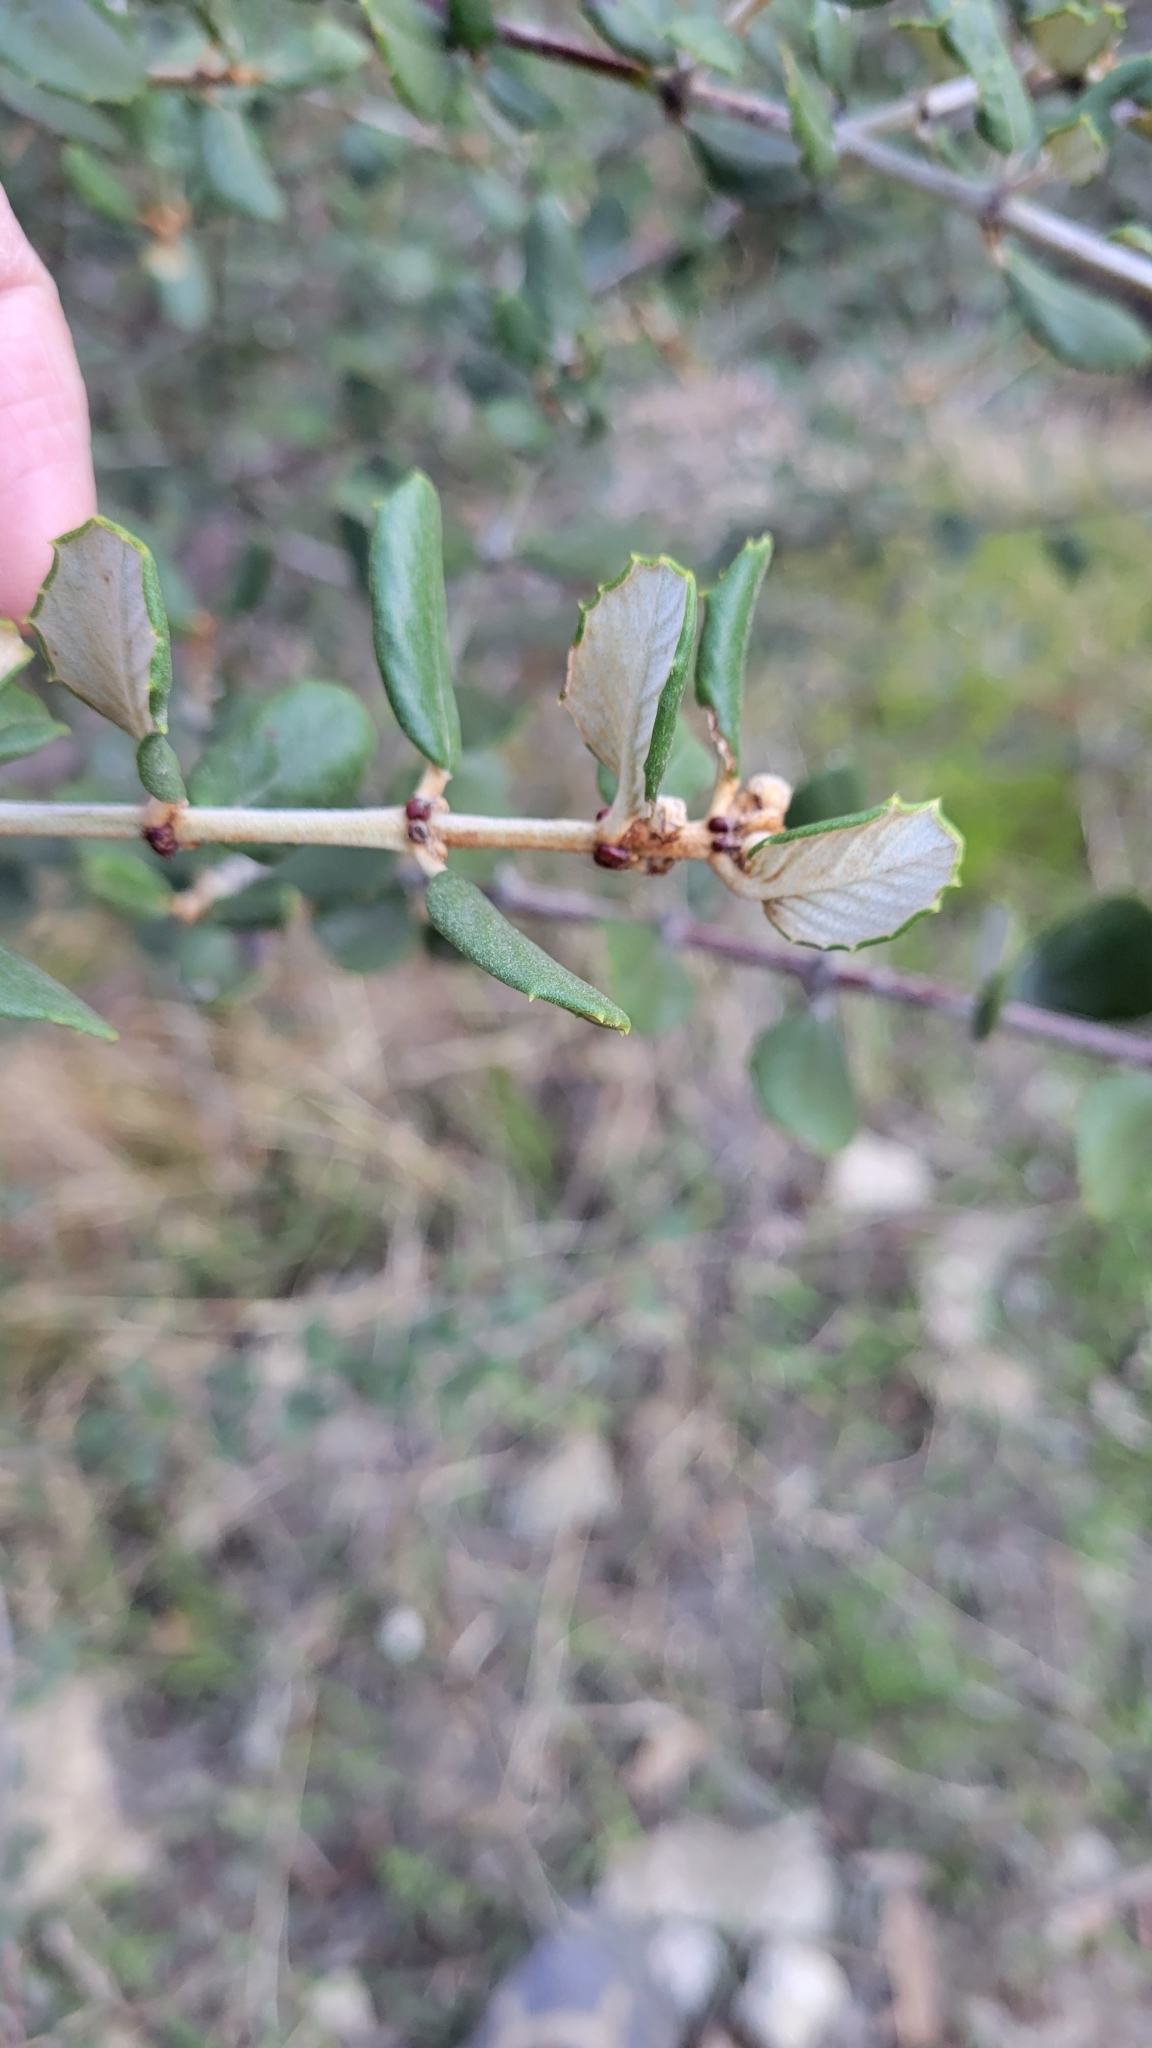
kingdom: Plantae
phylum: Tracheophyta
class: Magnoliopsida
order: Rosales
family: Rhamnaceae
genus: Ceanothus
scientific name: Ceanothus crassifolius
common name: Hoaryleaf ceanothus
